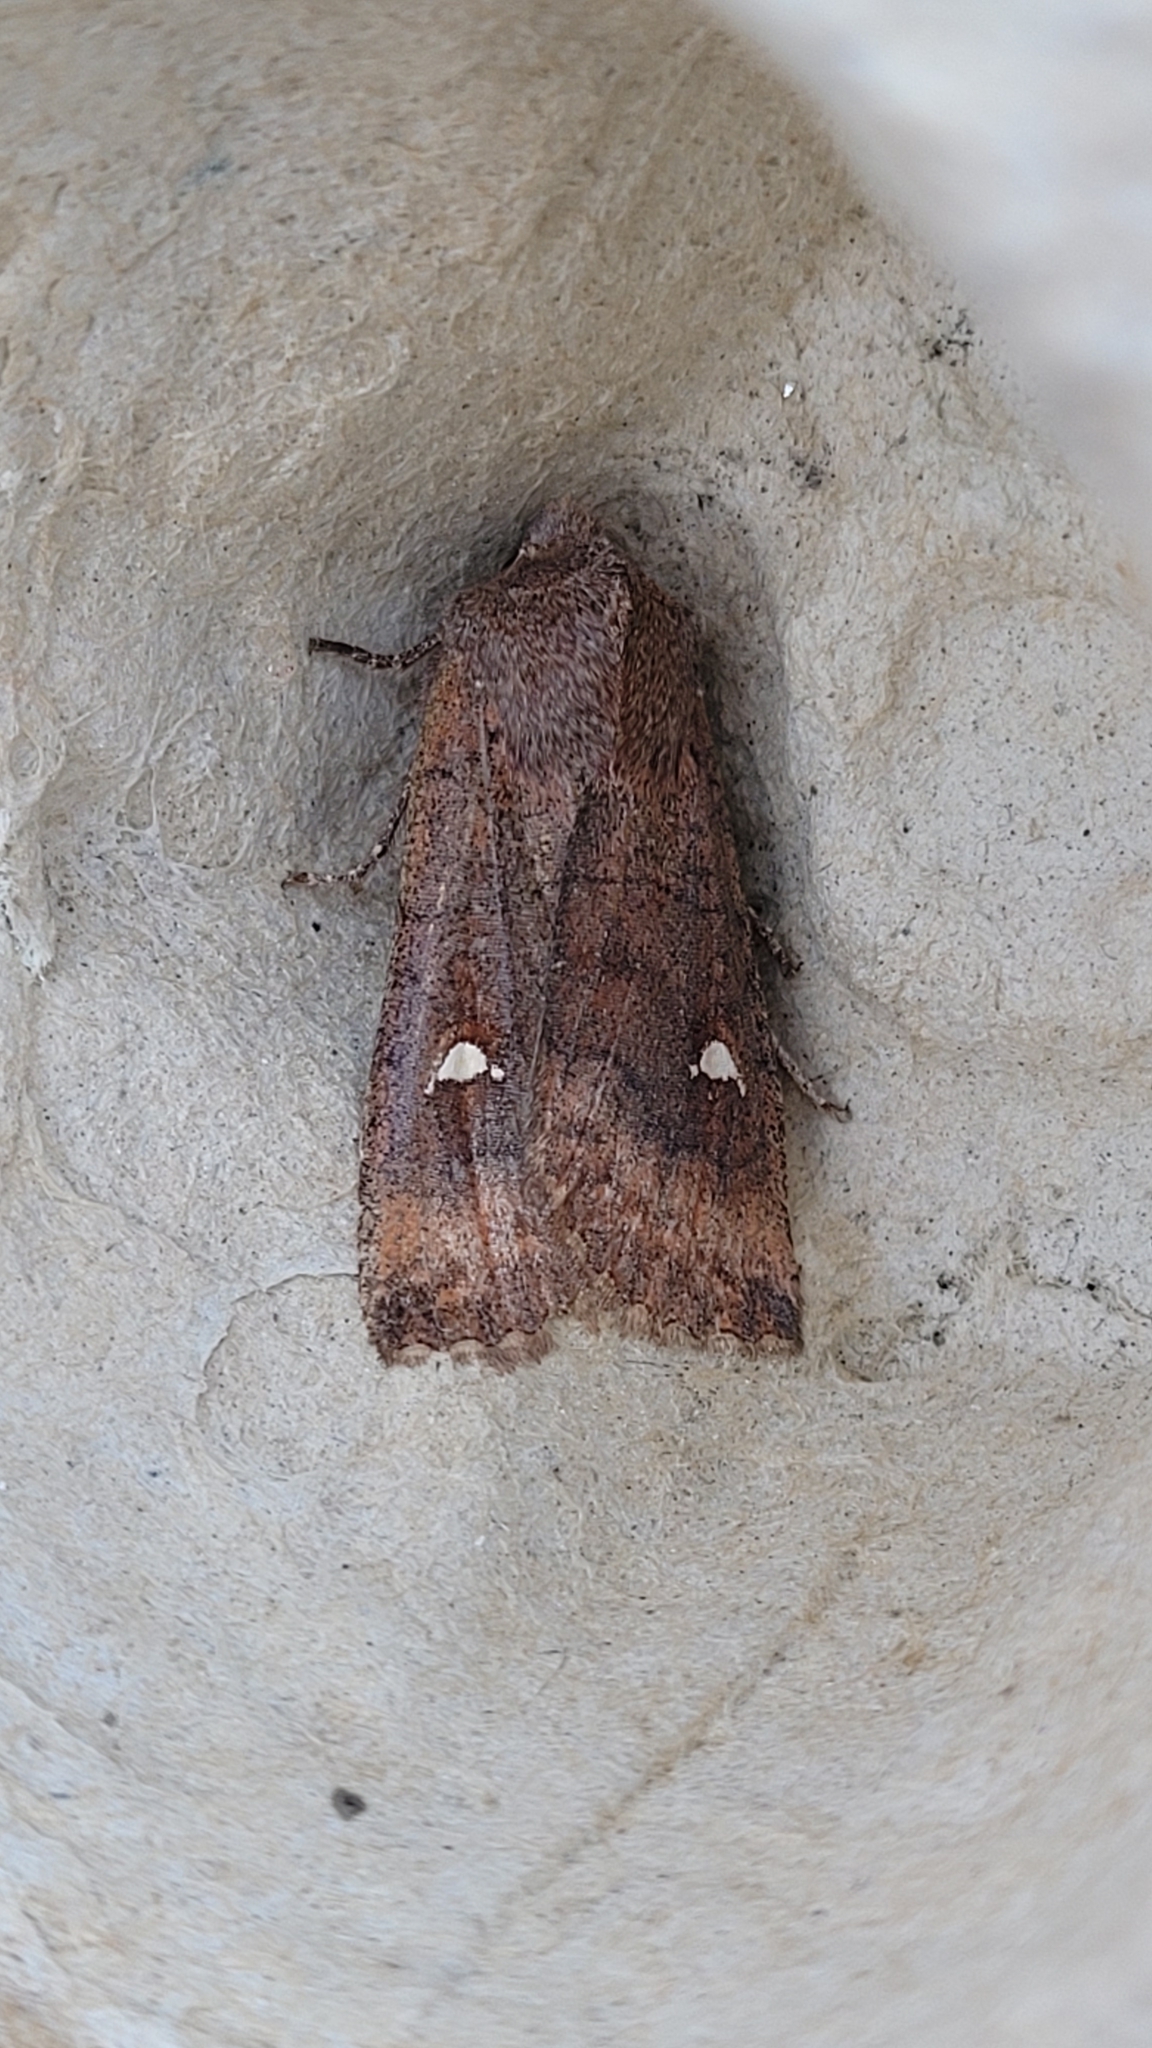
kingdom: Animalia
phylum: Arthropoda
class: Insecta
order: Lepidoptera
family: Noctuidae
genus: Eupsilia
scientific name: Eupsilia transversa
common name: Satellite
